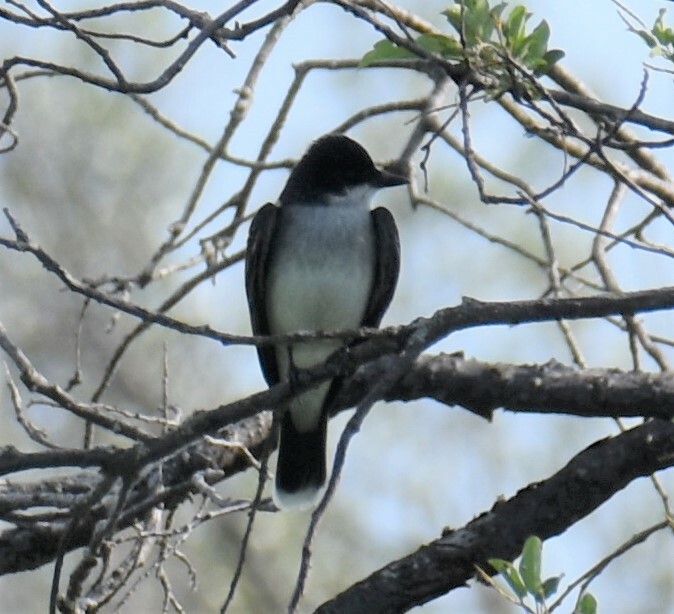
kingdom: Animalia
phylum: Chordata
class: Aves
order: Passeriformes
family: Tyrannidae
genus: Tyrannus
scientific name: Tyrannus tyrannus
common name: Eastern kingbird
